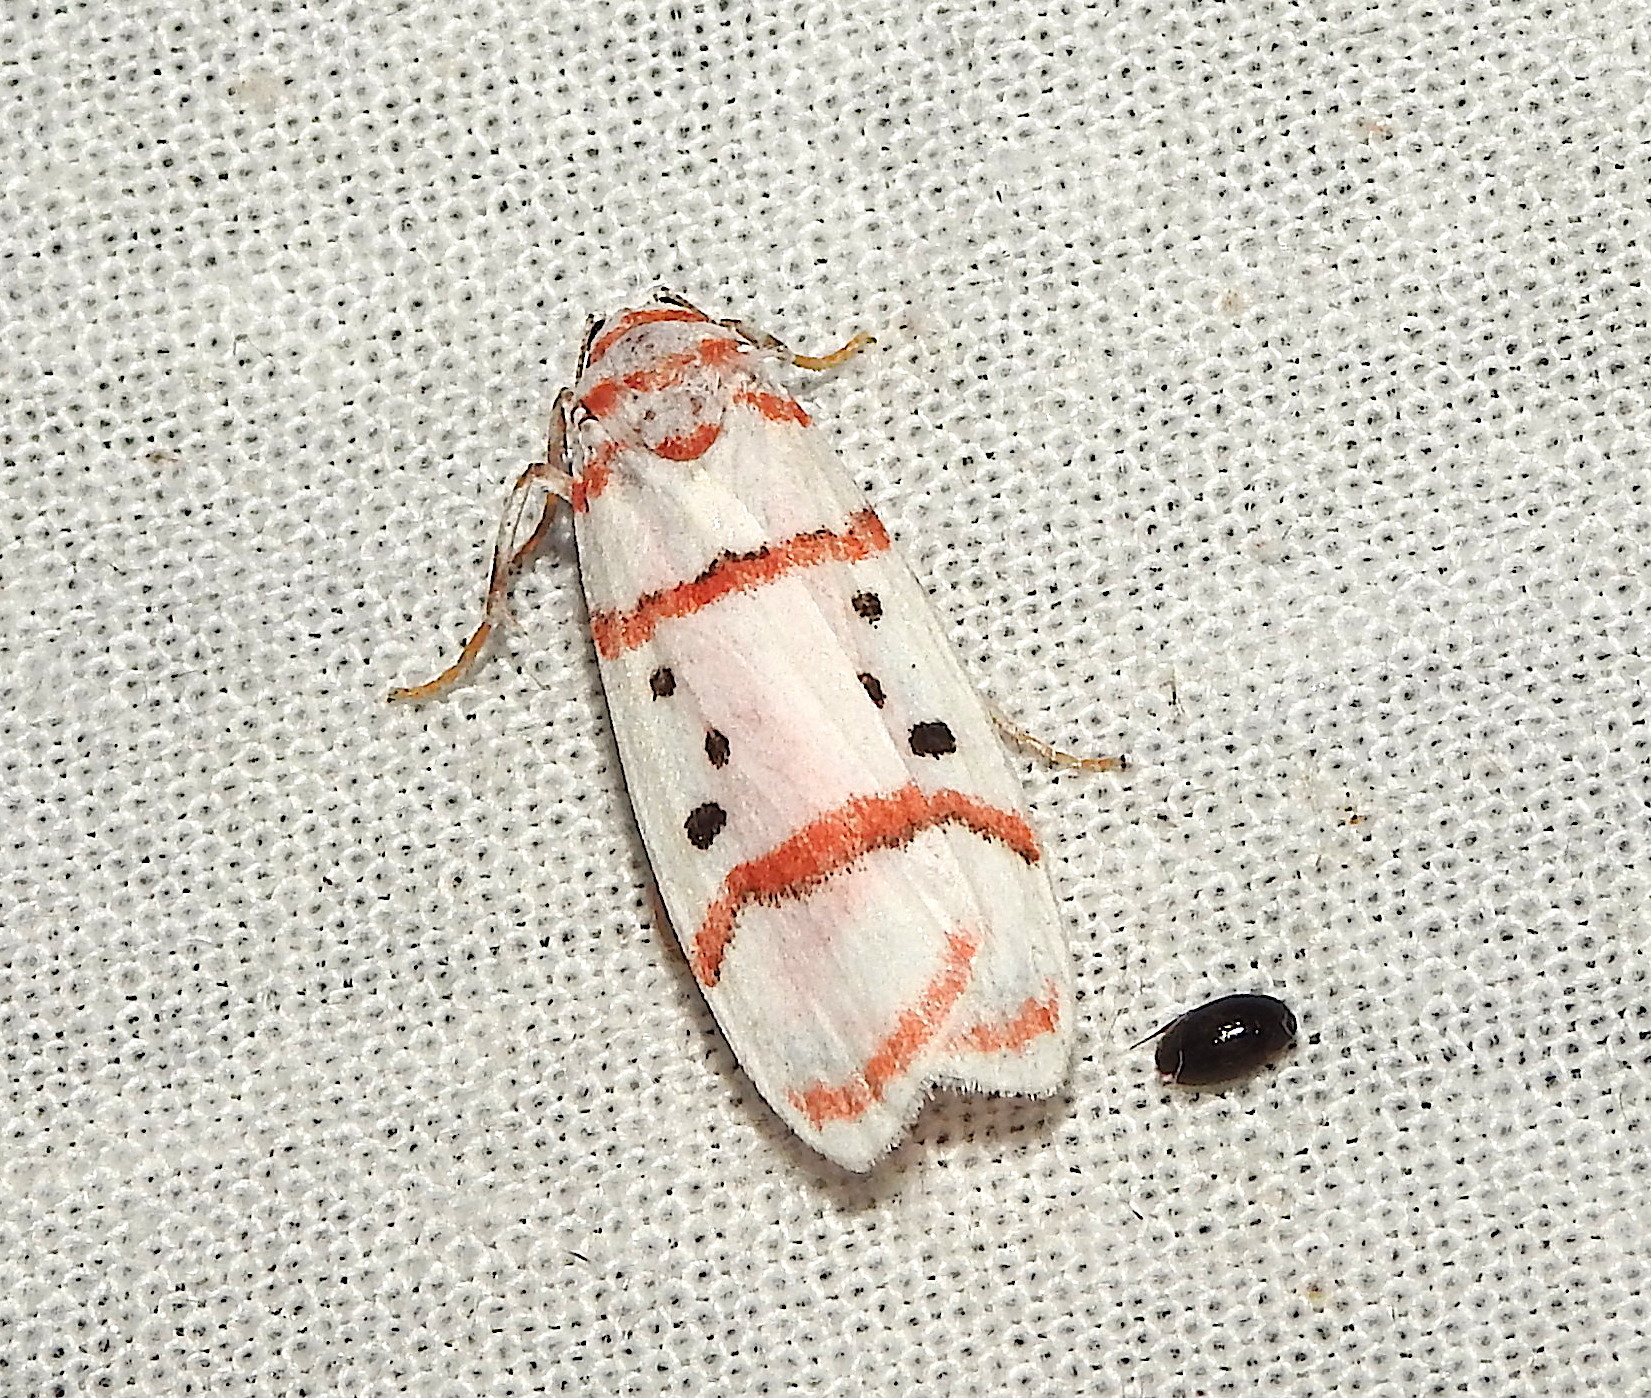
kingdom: Animalia
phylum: Arthropoda
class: Insecta
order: Lepidoptera
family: Erebidae
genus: Cyana
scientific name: Cyana linatula
